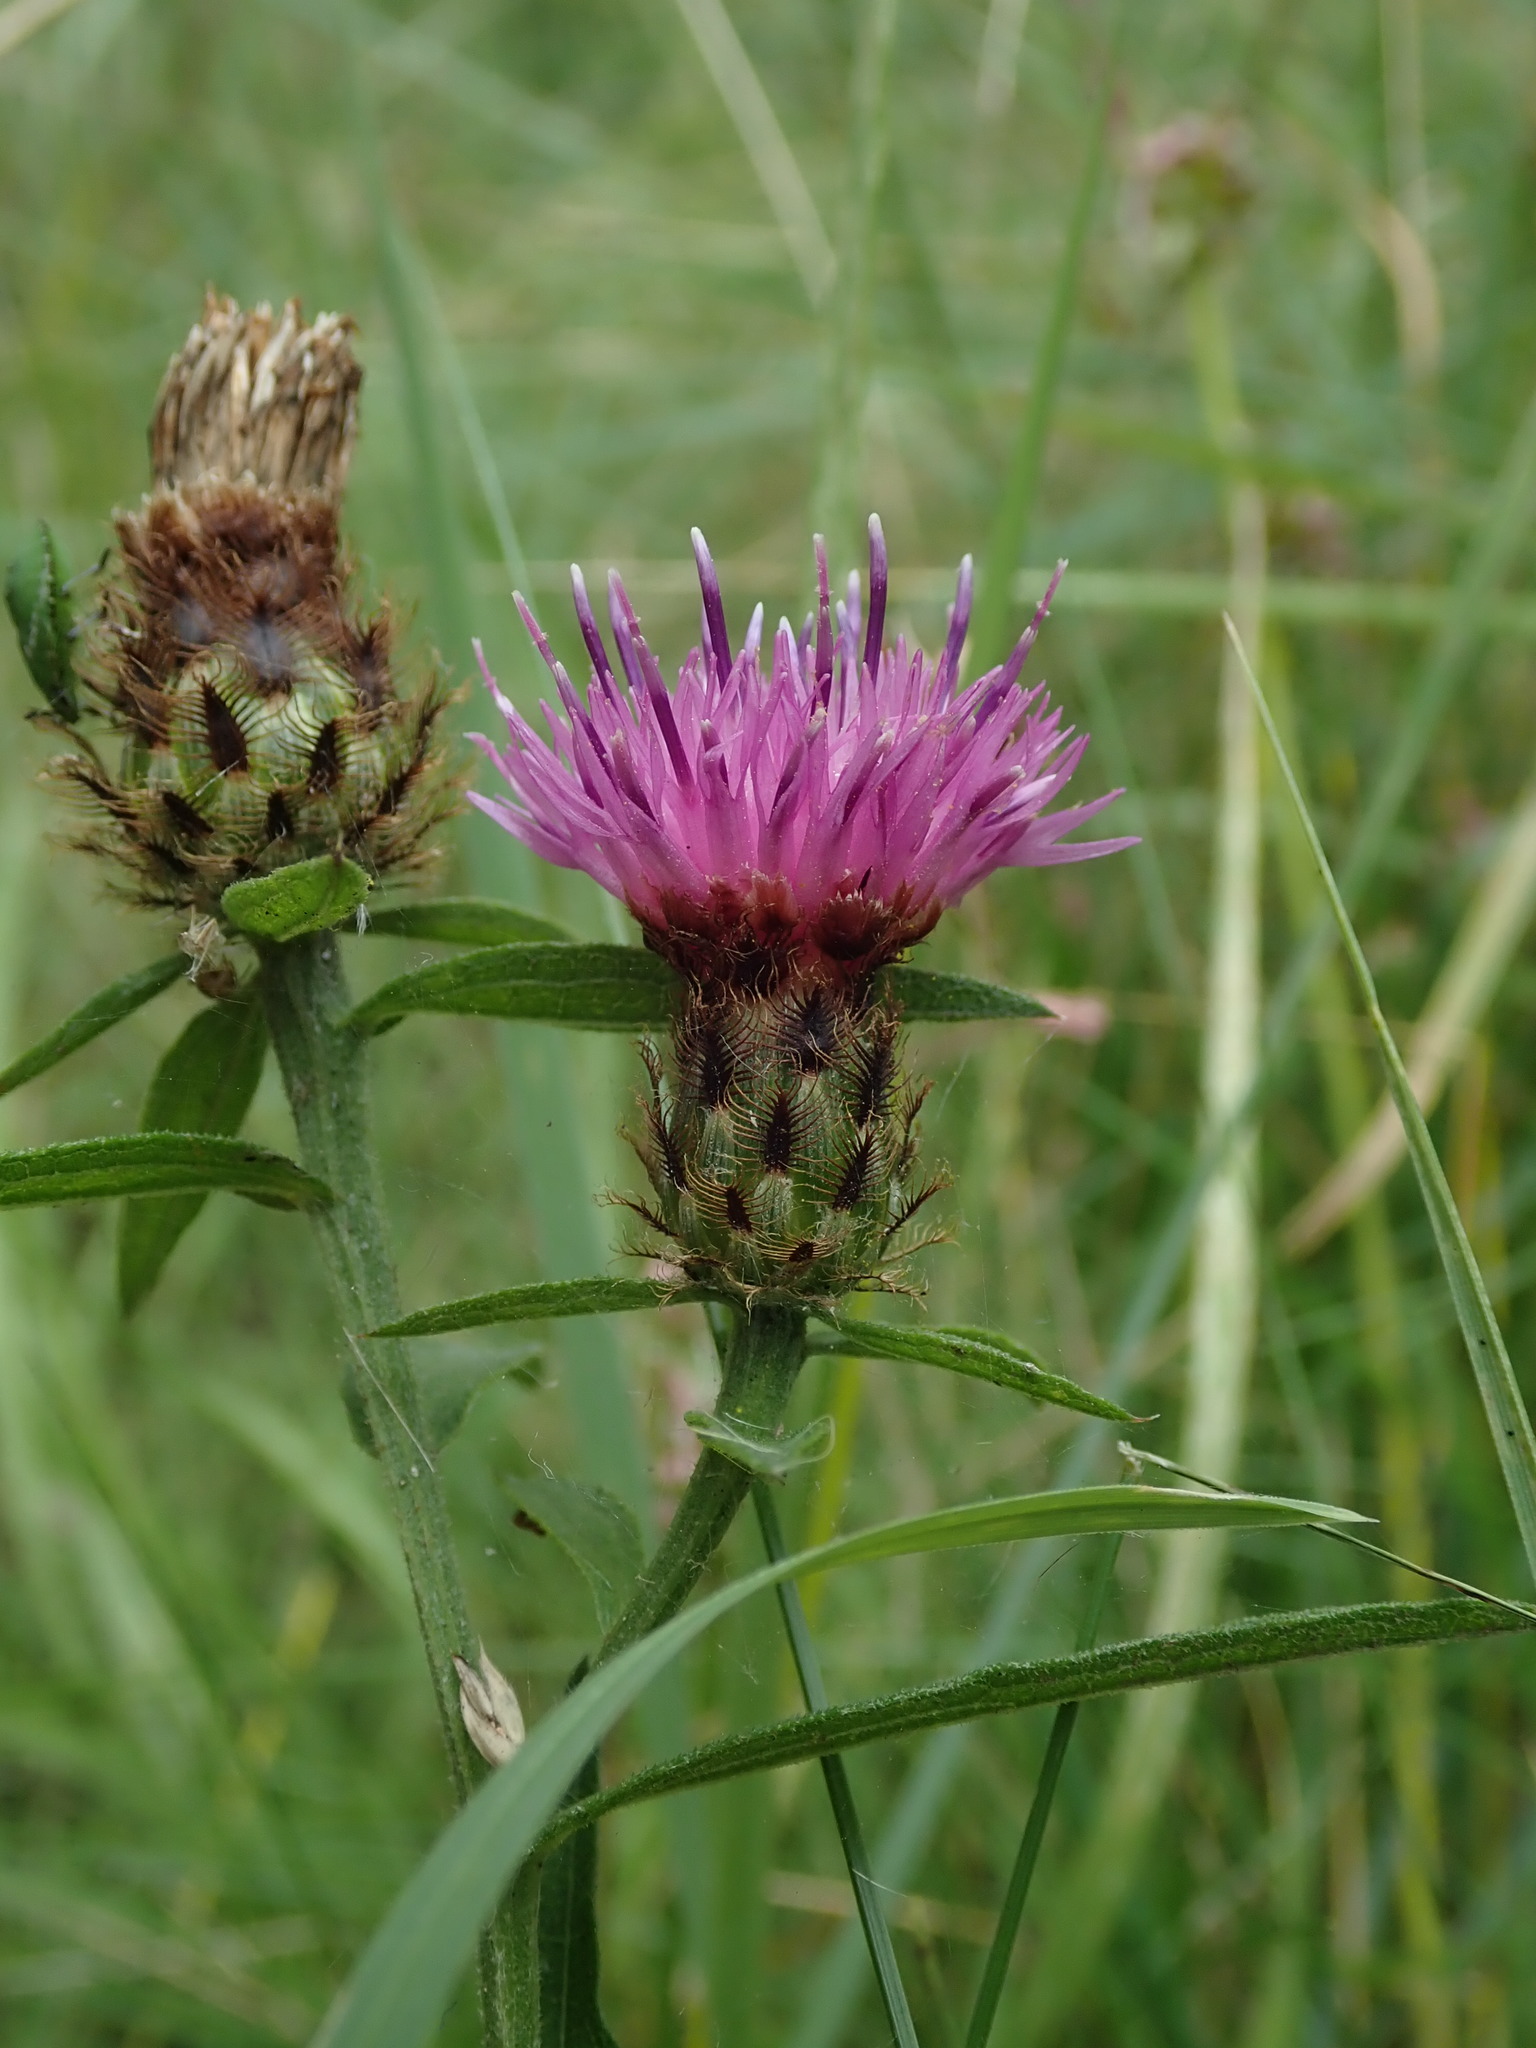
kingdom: Plantae
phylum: Tracheophyta
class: Magnoliopsida
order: Asterales
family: Asteraceae
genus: Centaurea
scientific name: Centaurea debeauxii
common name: Slender knapweed
